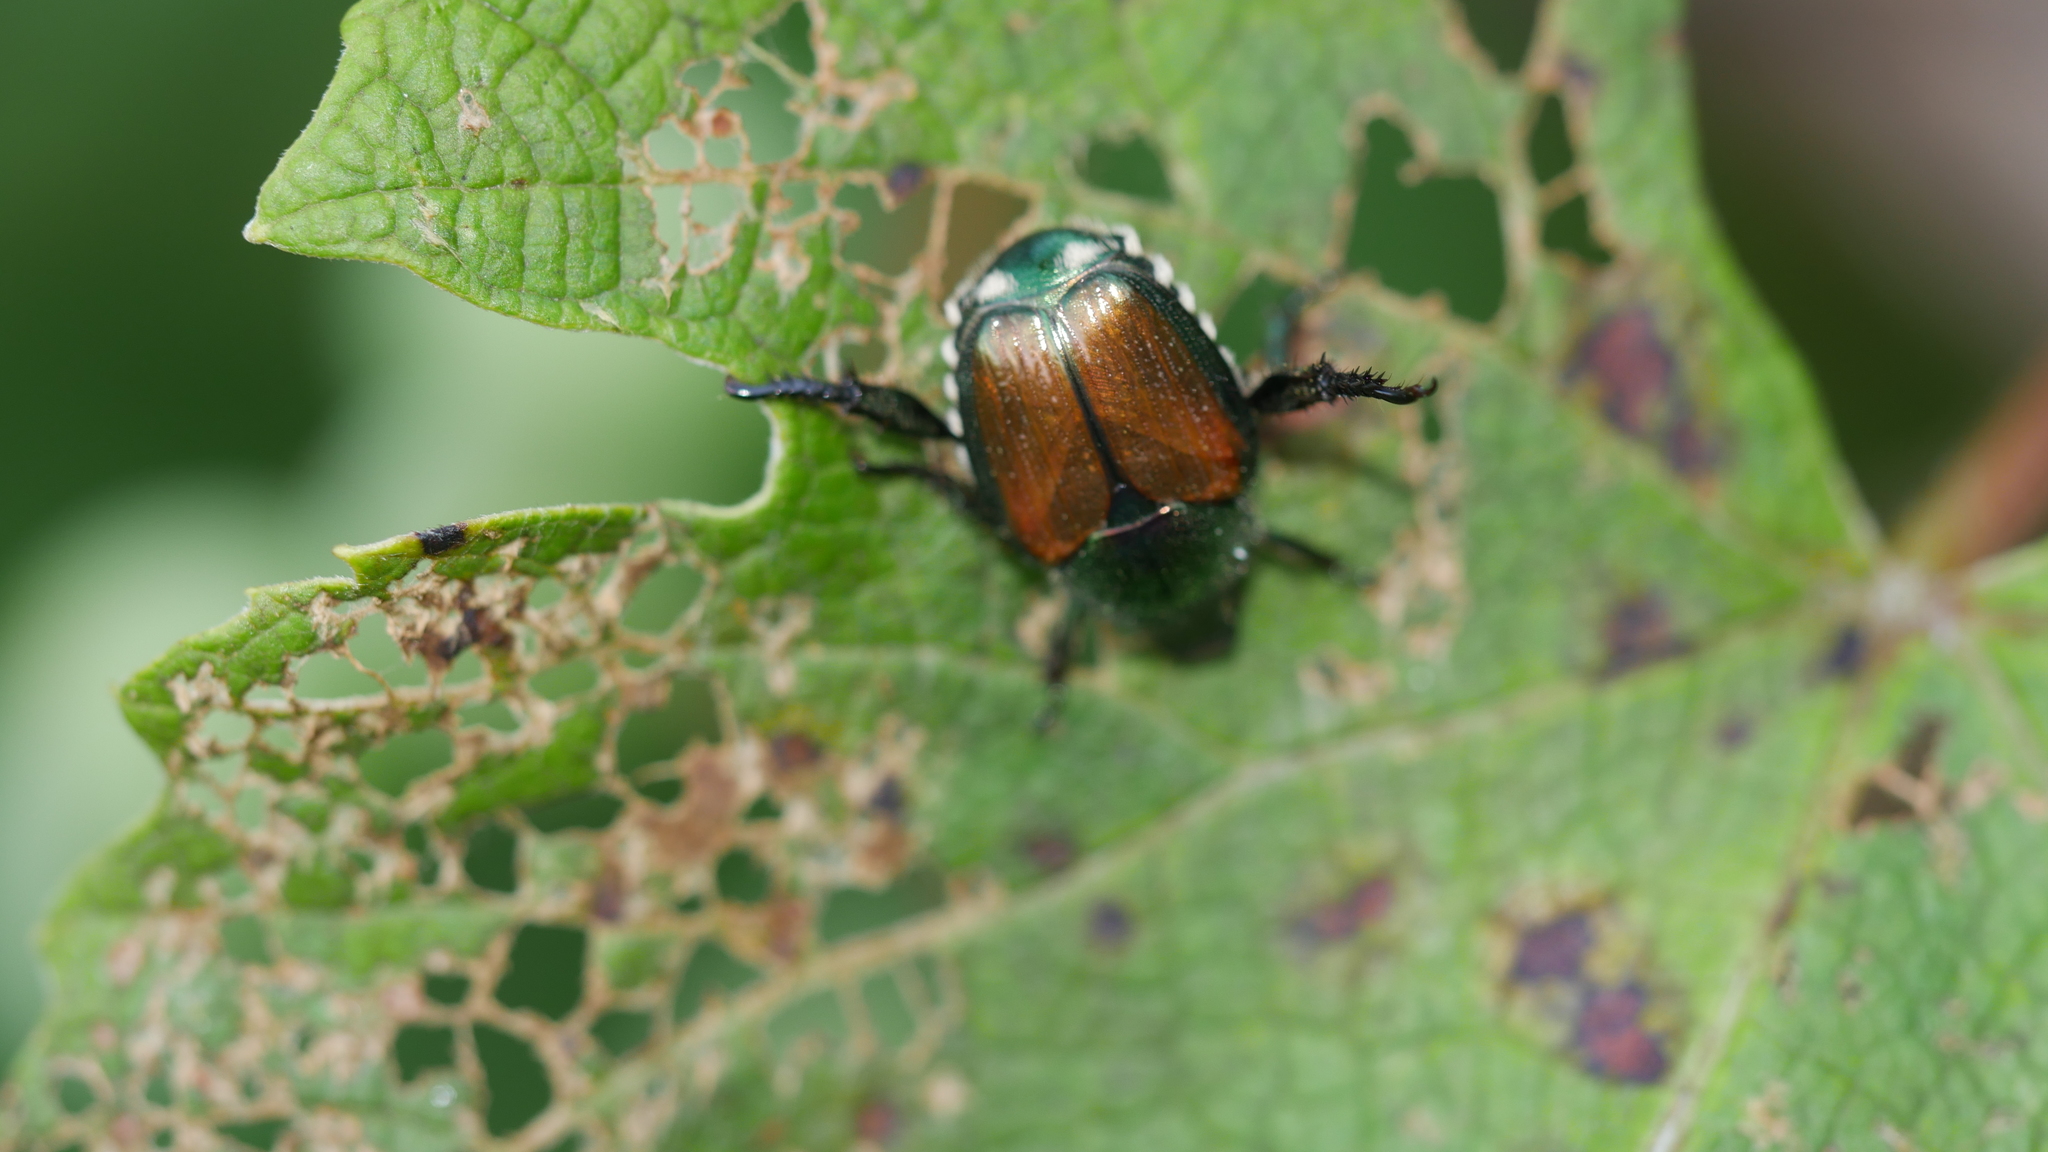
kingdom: Animalia
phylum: Arthropoda
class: Insecta
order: Coleoptera
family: Scarabaeidae
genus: Popillia
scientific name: Popillia japonica
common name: Japanese beetle
